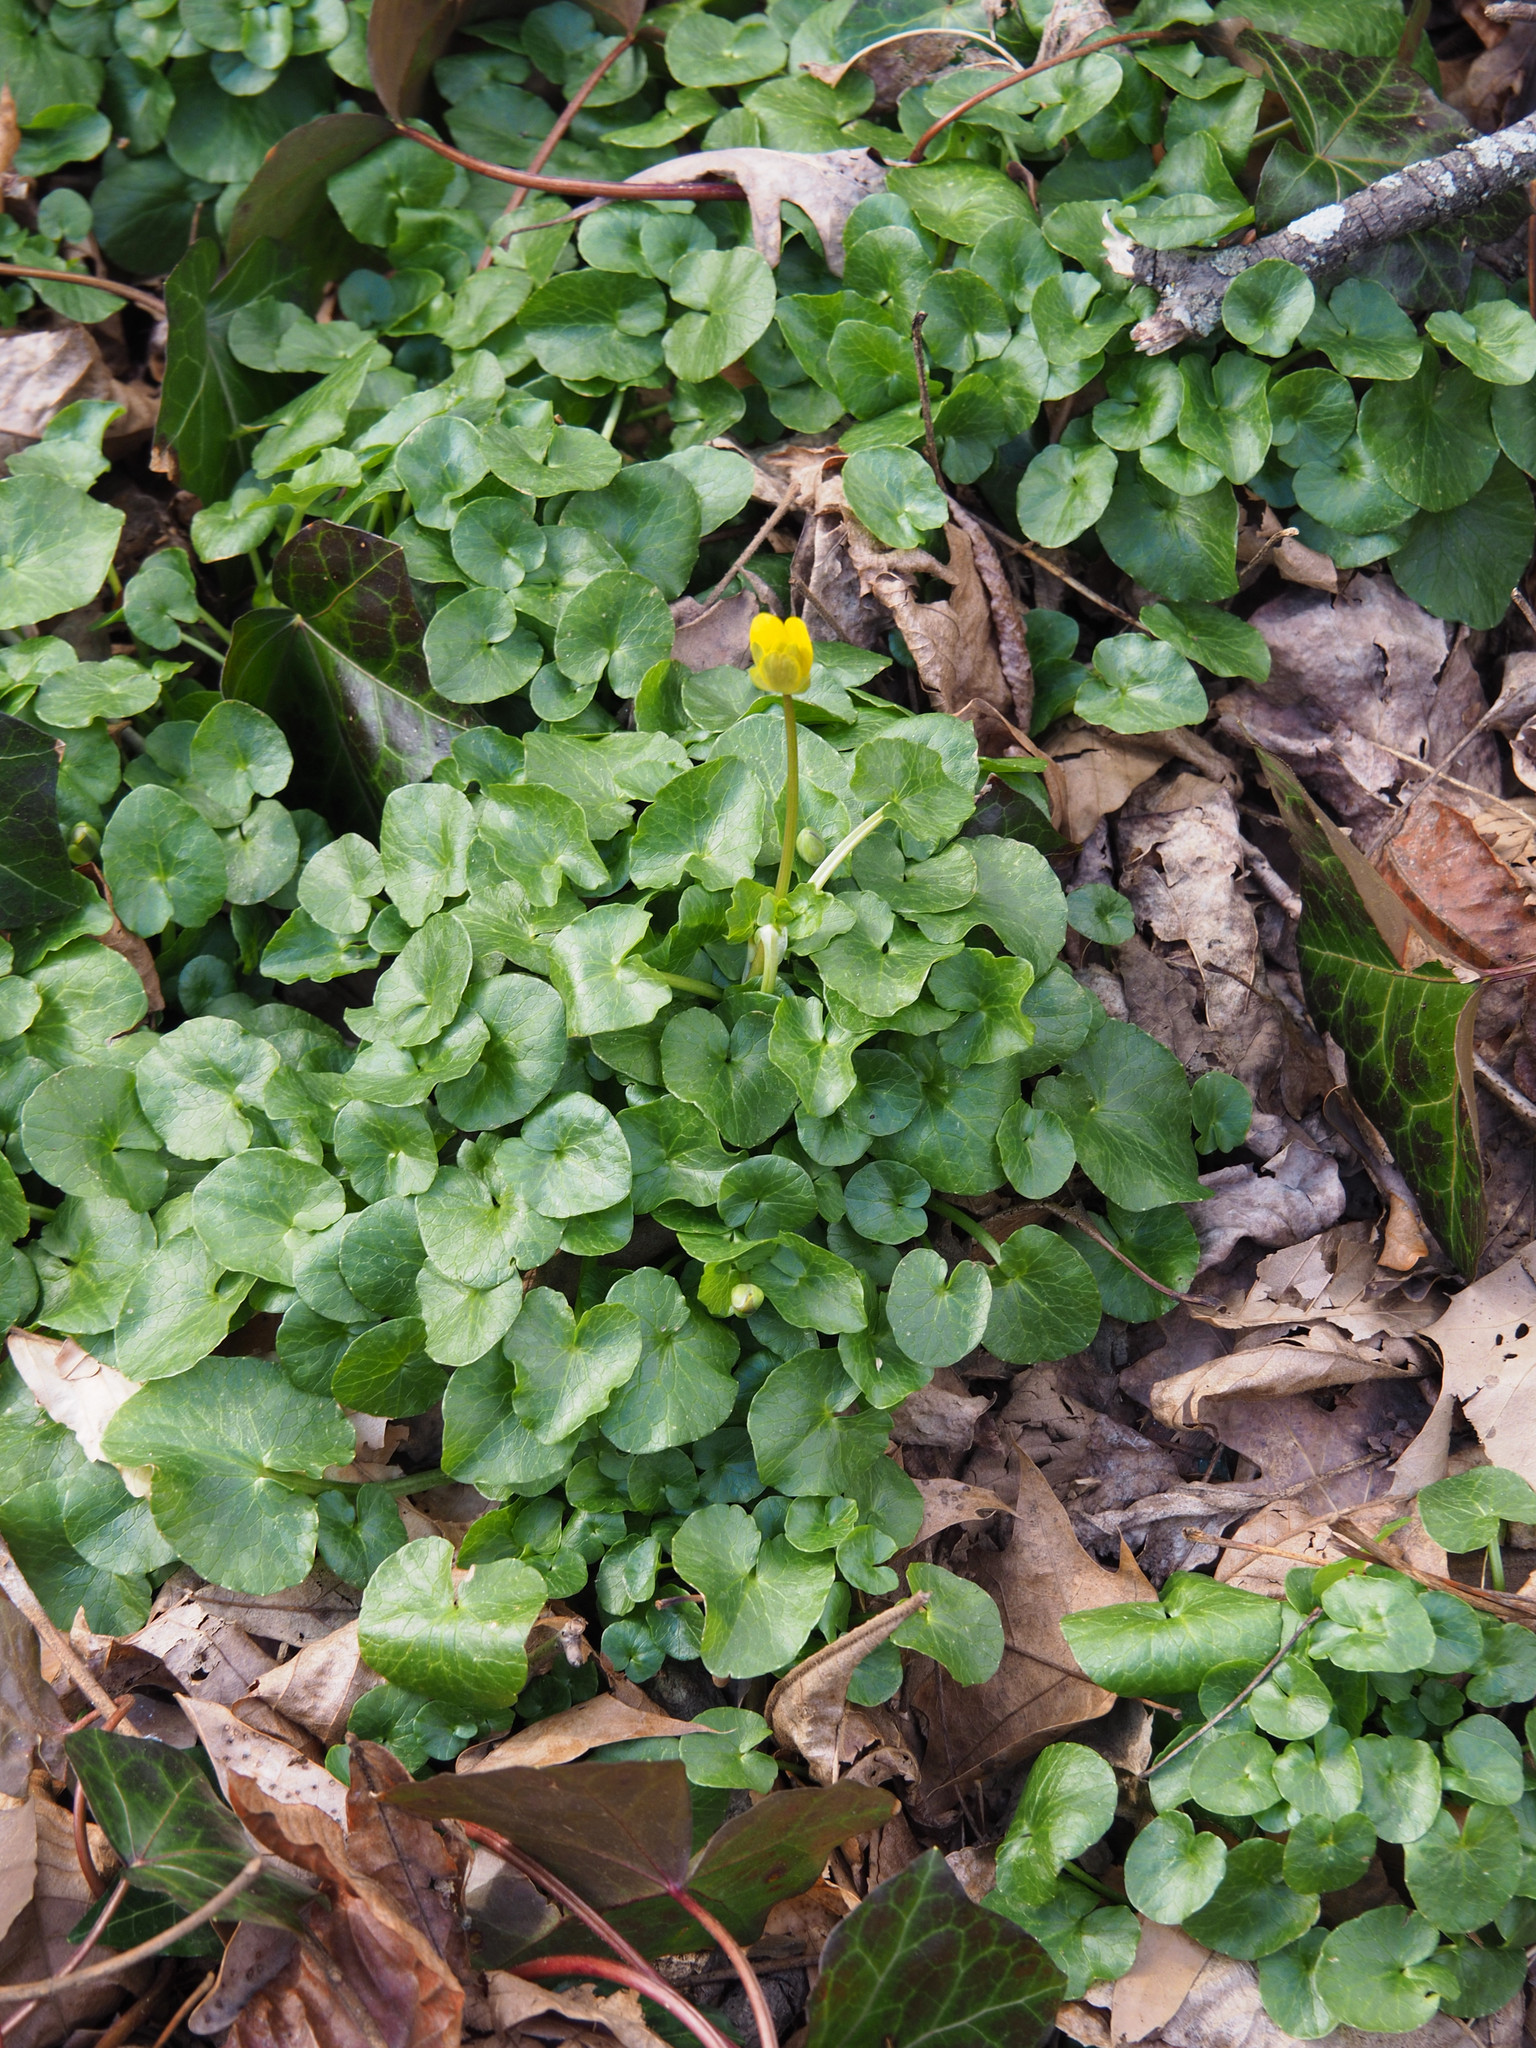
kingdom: Plantae
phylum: Tracheophyta
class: Magnoliopsida
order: Ranunculales
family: Ranunculaceae
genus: Ficaria
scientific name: Ficaria verna
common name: Lesser celandine
